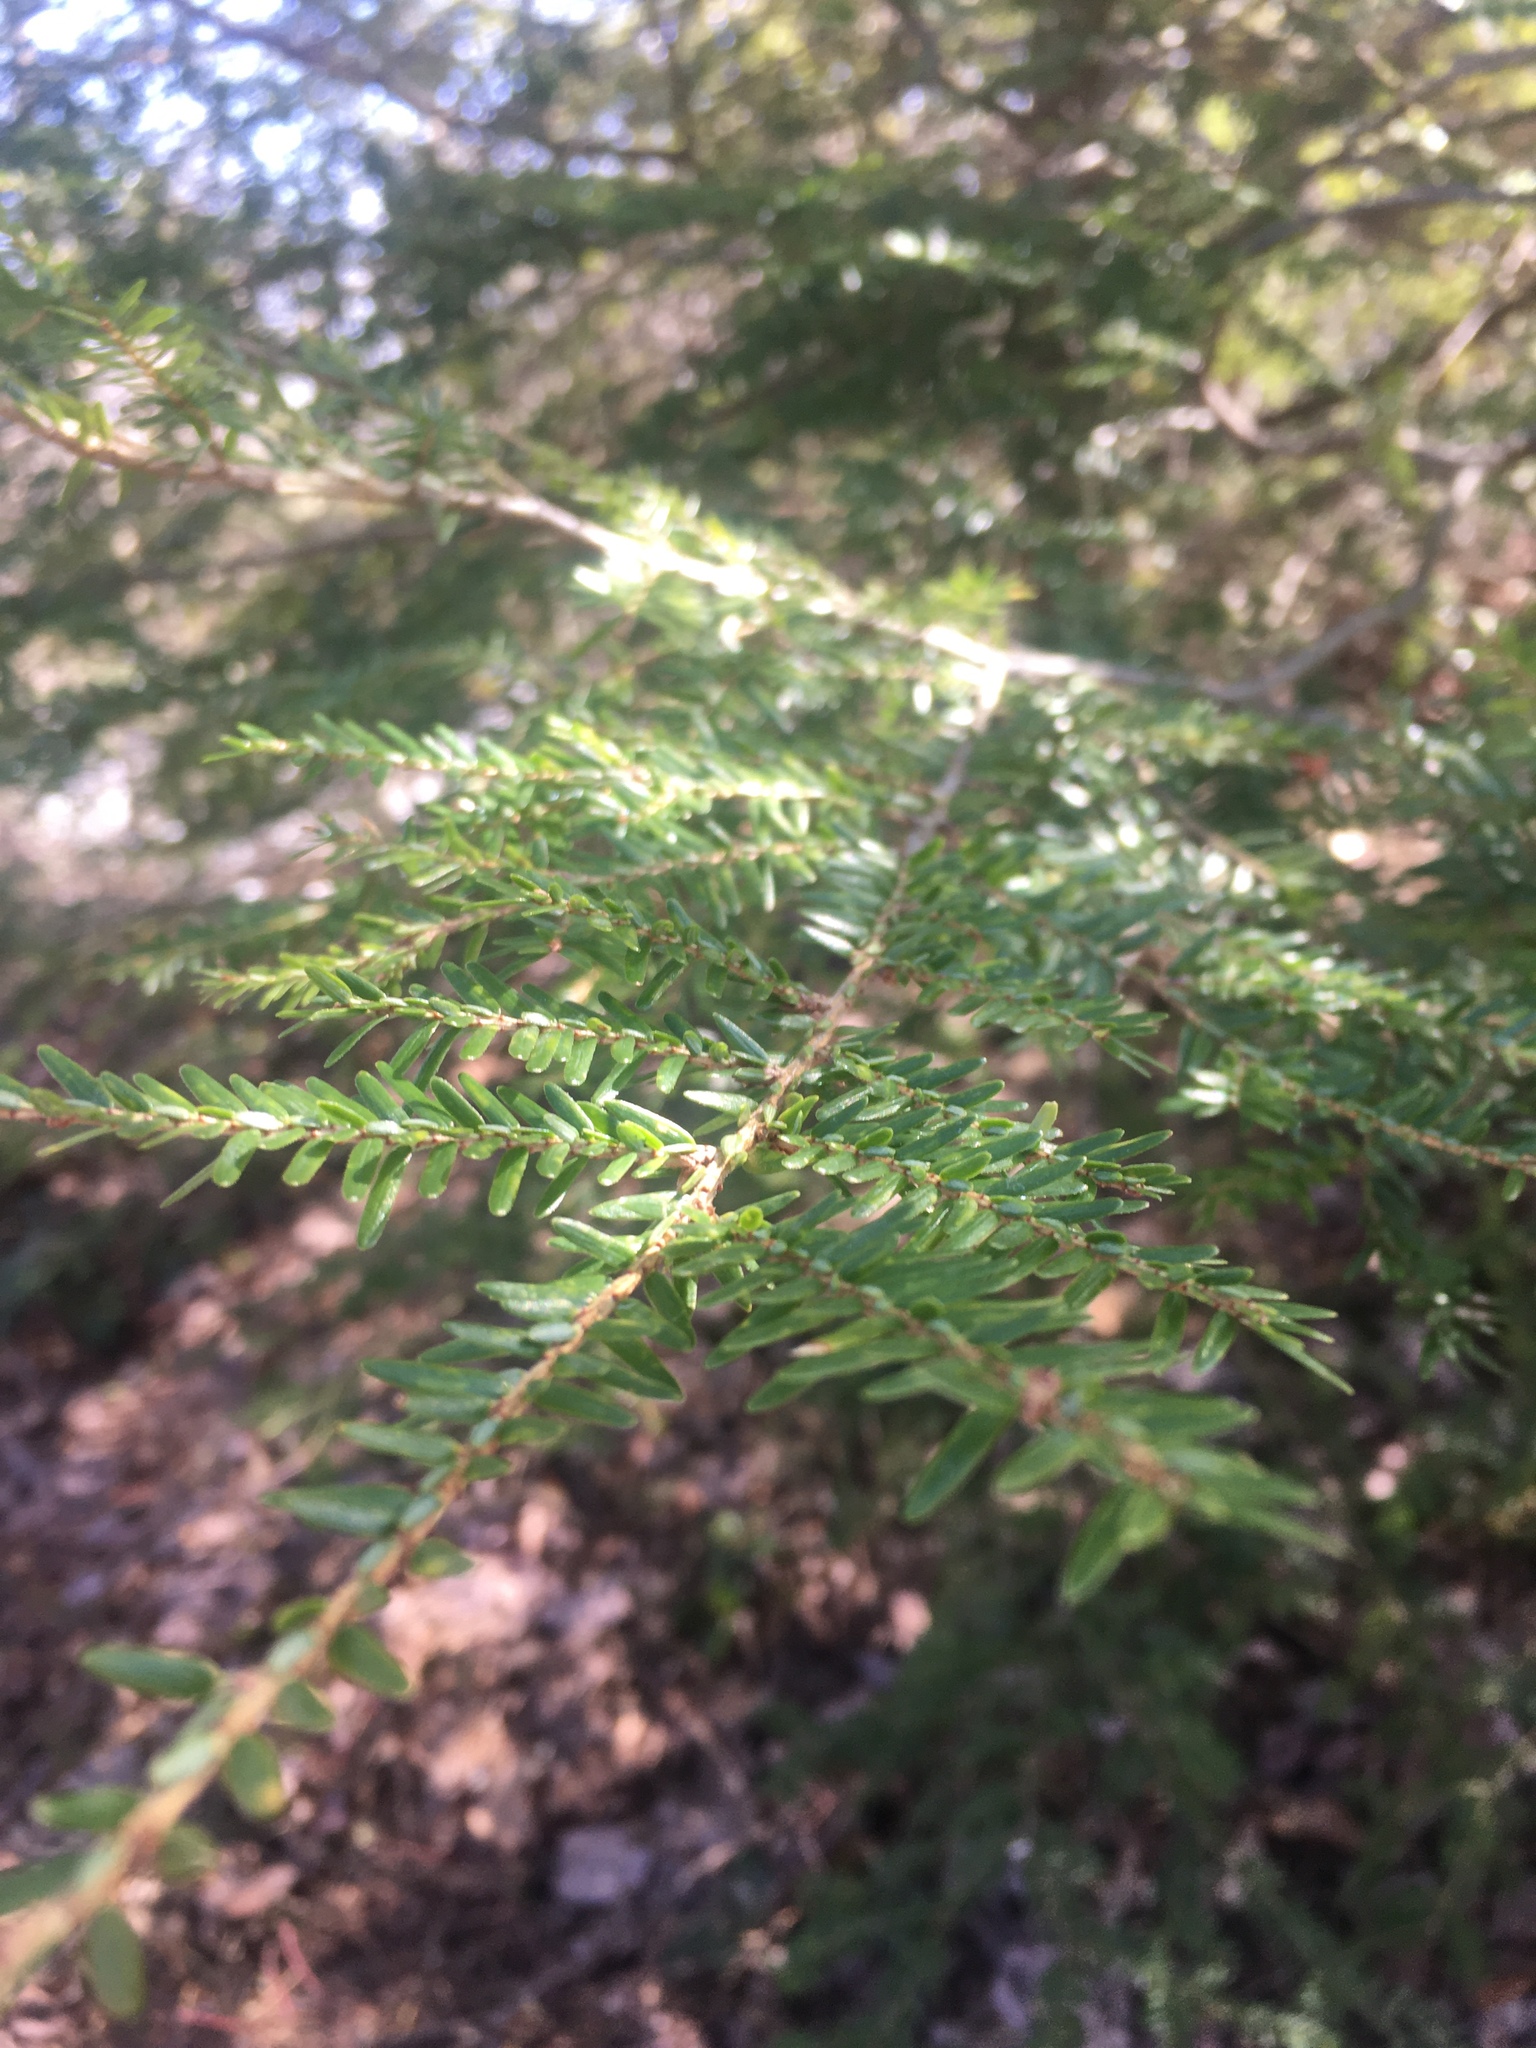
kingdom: Plantae
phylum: Tracheophyta
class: Pinopsida
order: Pinales
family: Pinaceae
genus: Tsuga
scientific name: Tsuga canadensis
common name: Eastern hemlock
